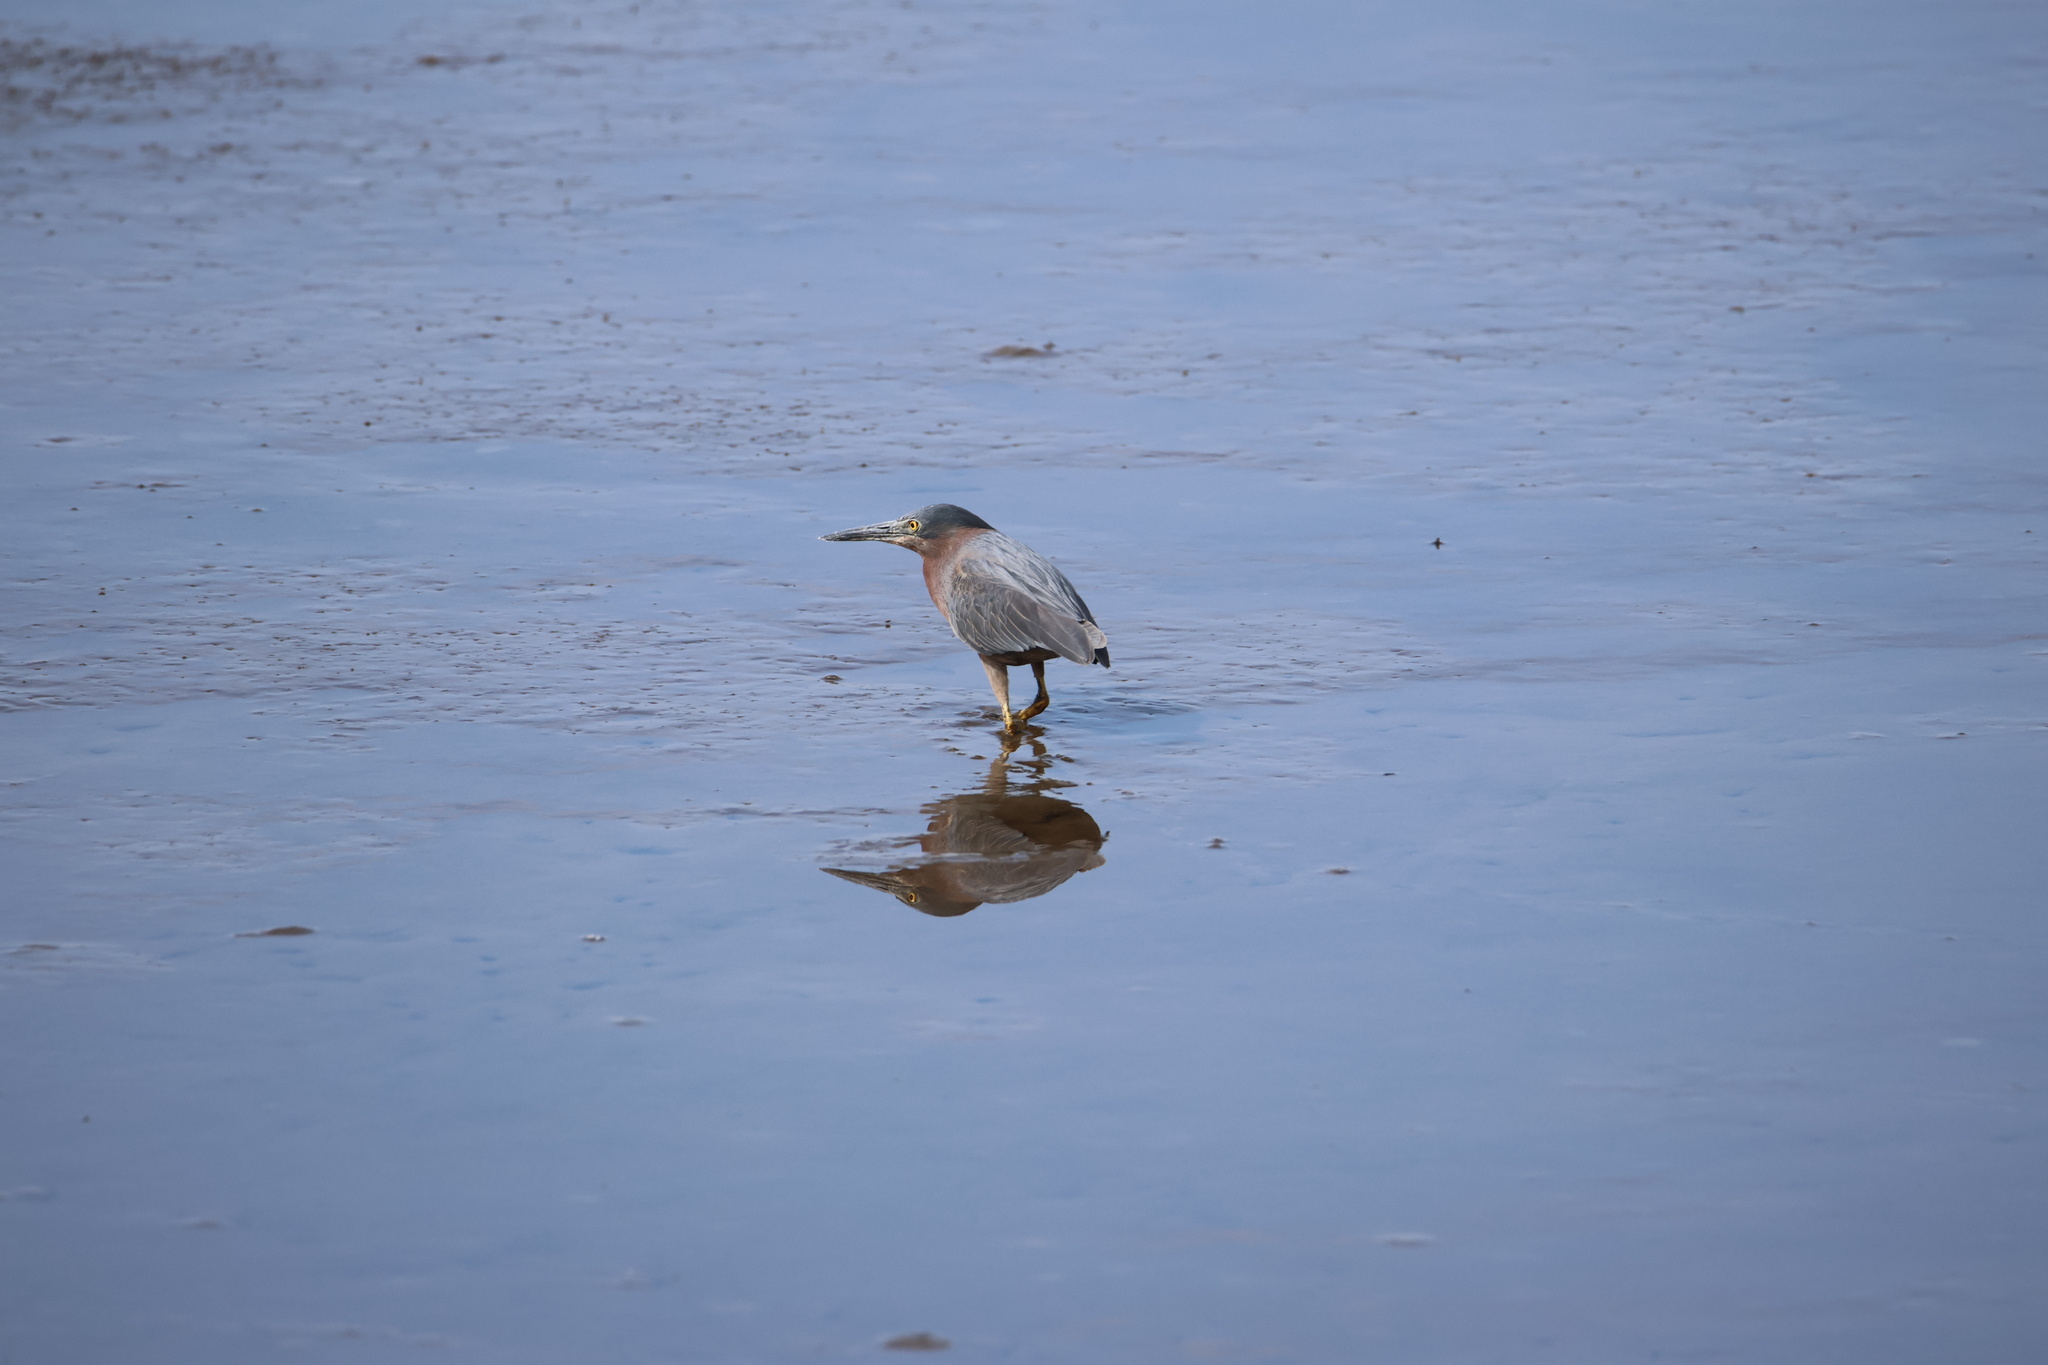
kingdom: Animalia
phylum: Chordata
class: Aves
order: Pelecaniformes
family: Ardeidae
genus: Butorides
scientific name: Butorides virescens
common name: Green heron
